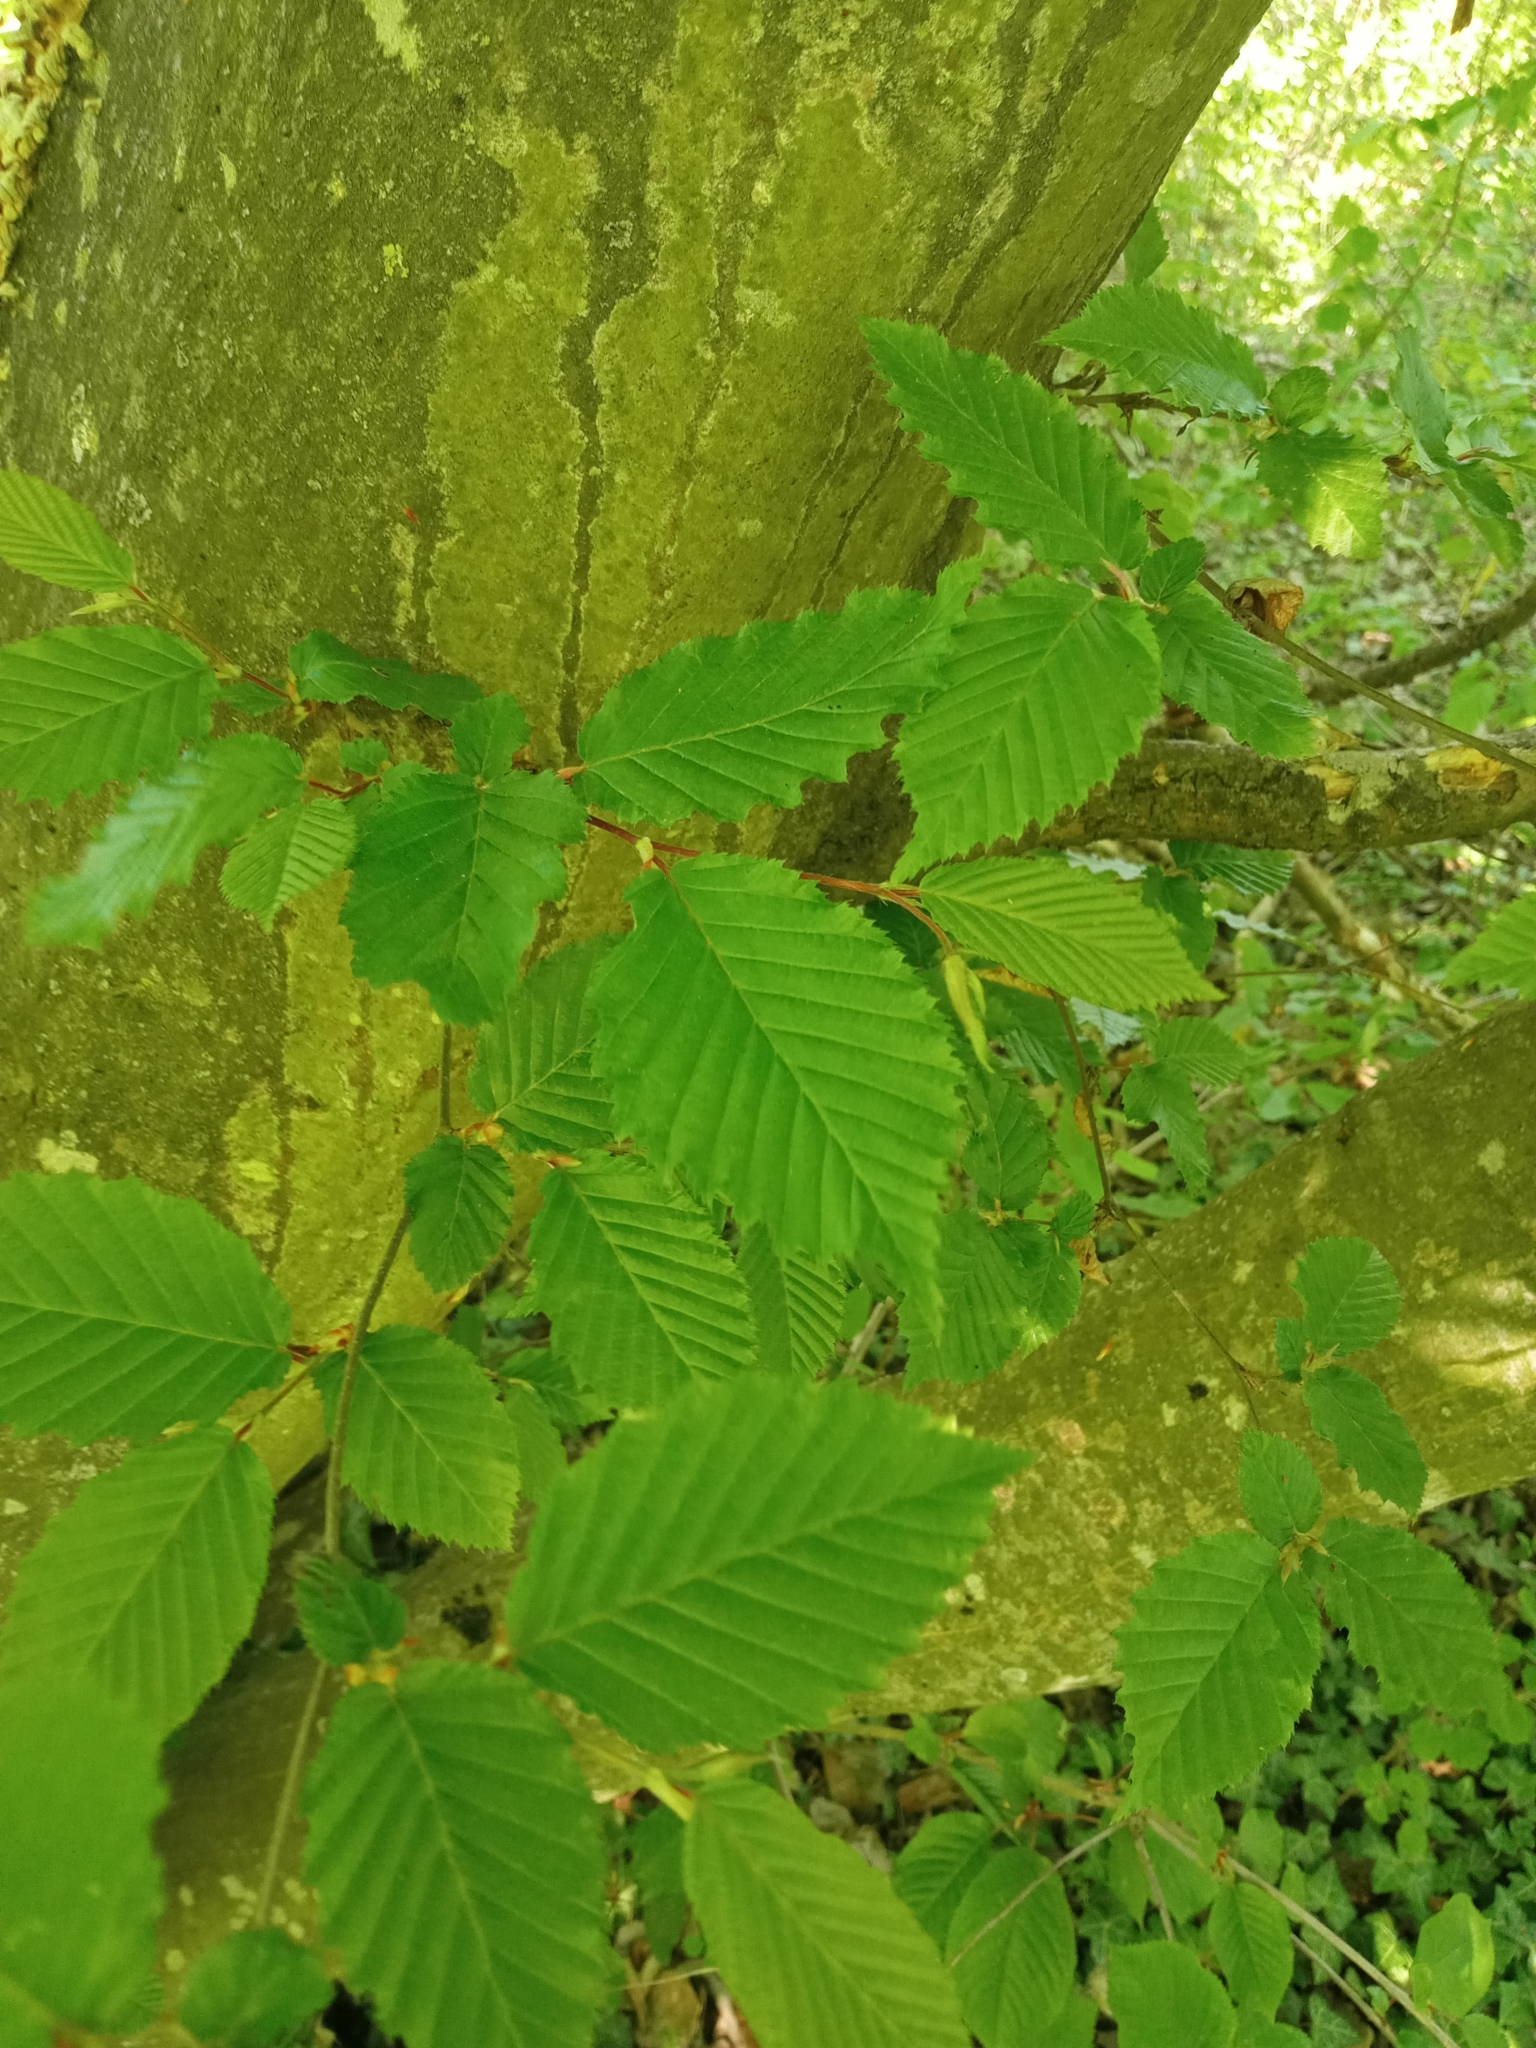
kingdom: Plantae
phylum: Tracheophyta
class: Magnoliopsida
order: Fagales
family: Betulaceae
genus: Carpinus
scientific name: Carpinus betulus
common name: Hornbeam
